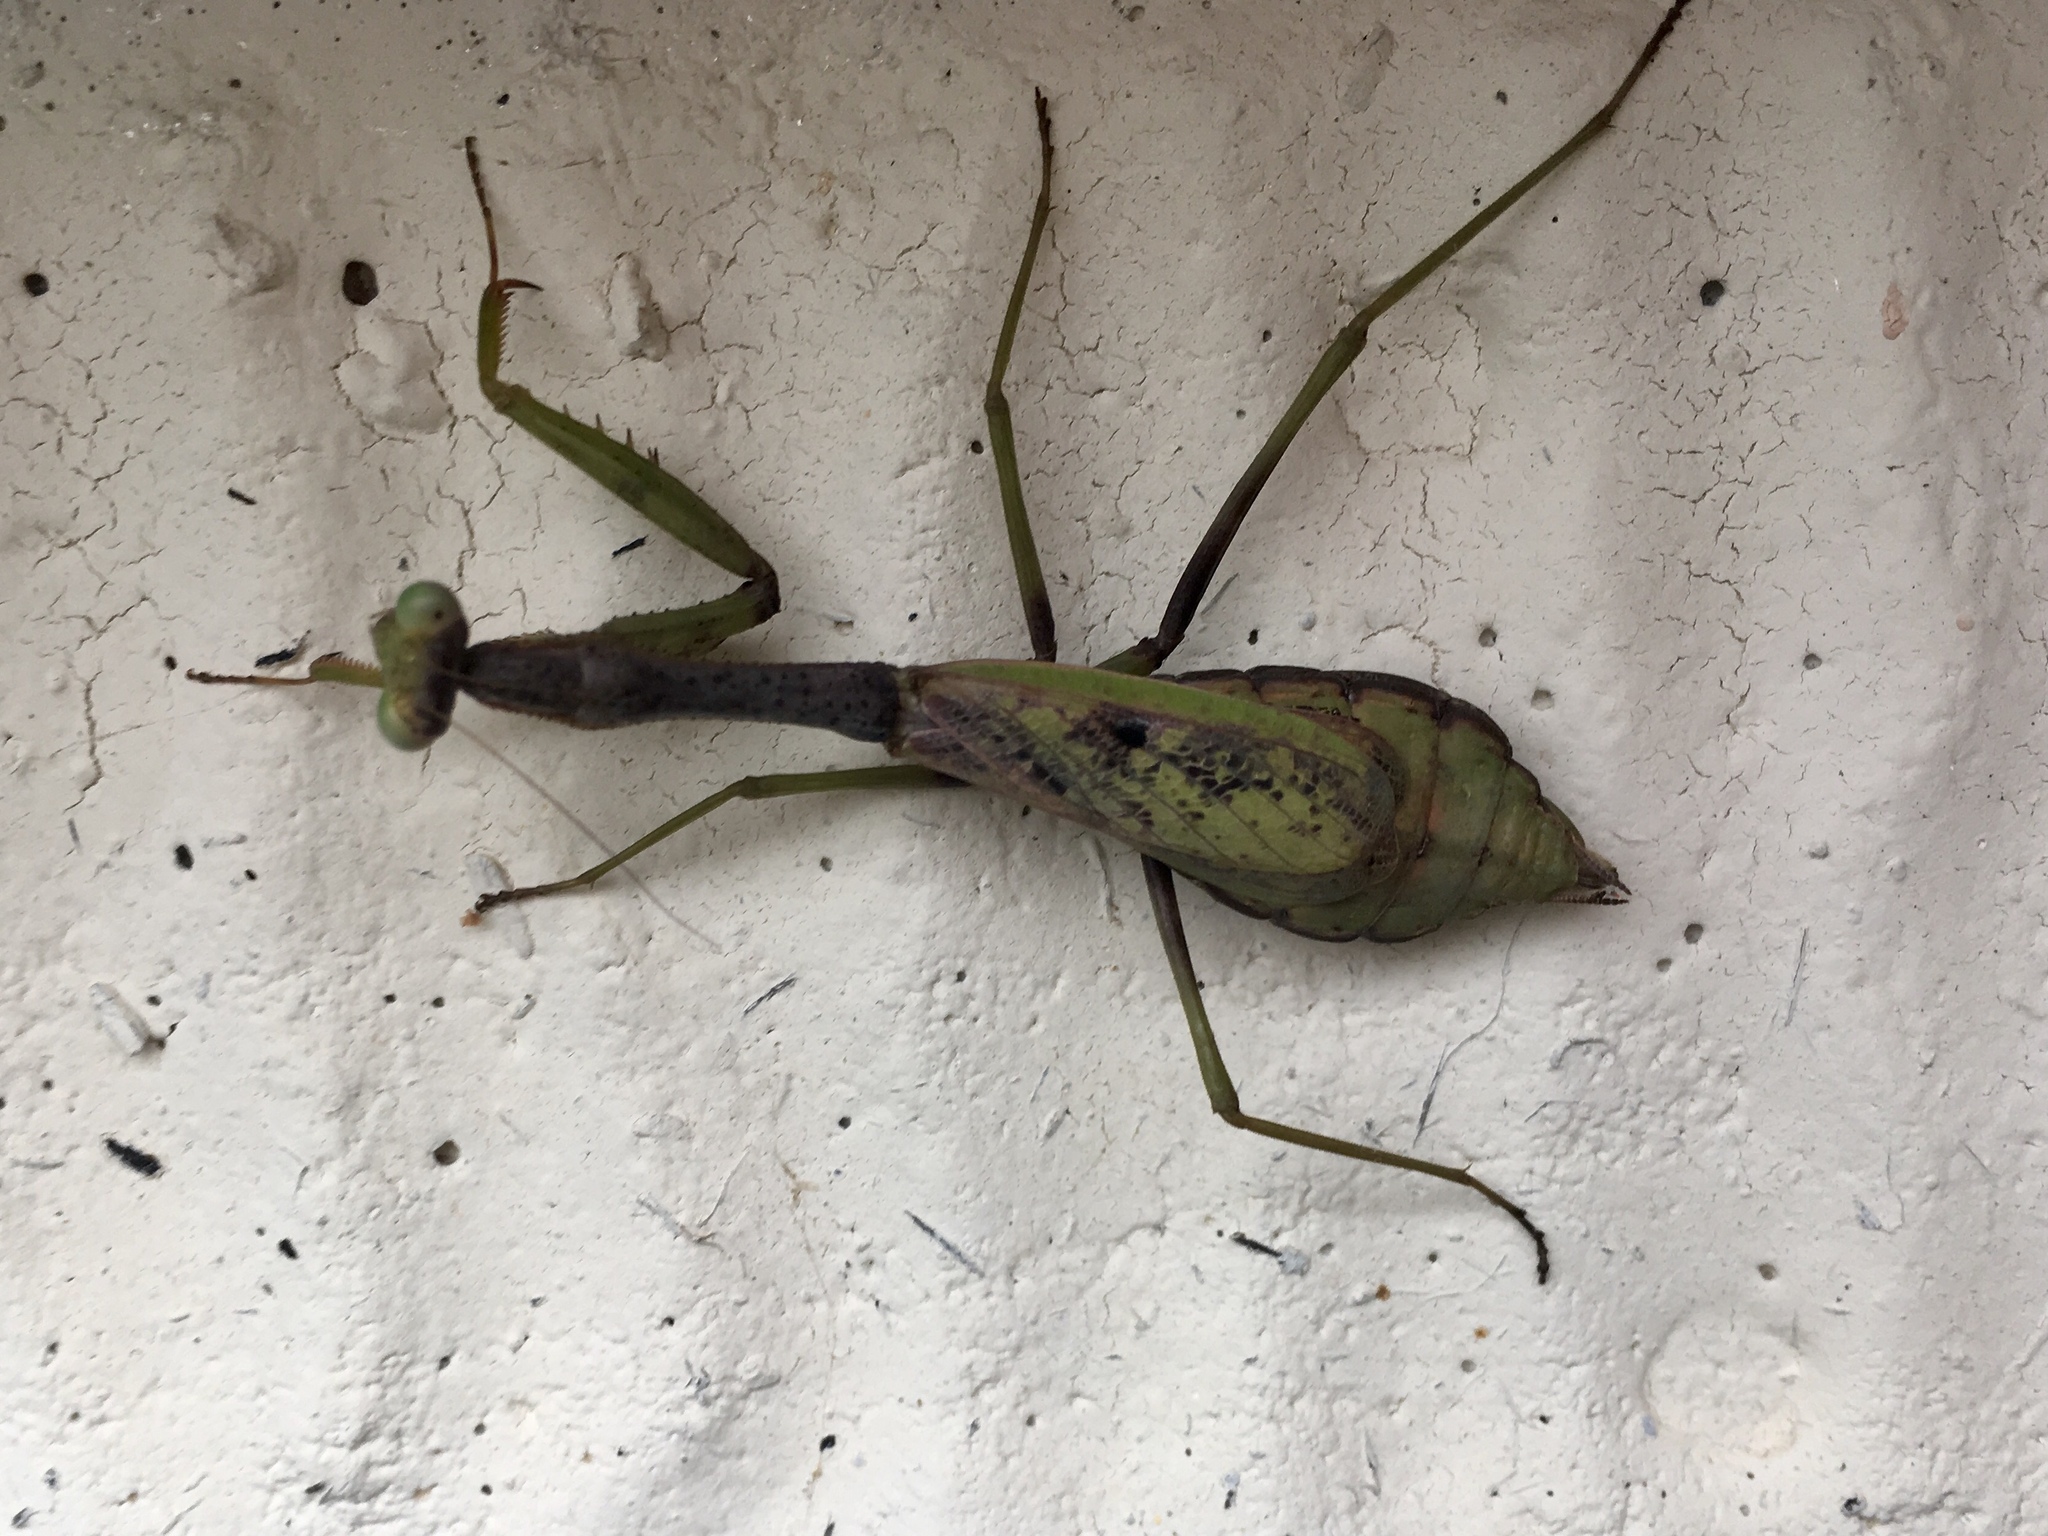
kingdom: Animalia
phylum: Arthropoda
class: Insecta
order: Mantodea
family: Mantidae
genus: Stagmomantis
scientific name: Stagmomantis carolina
